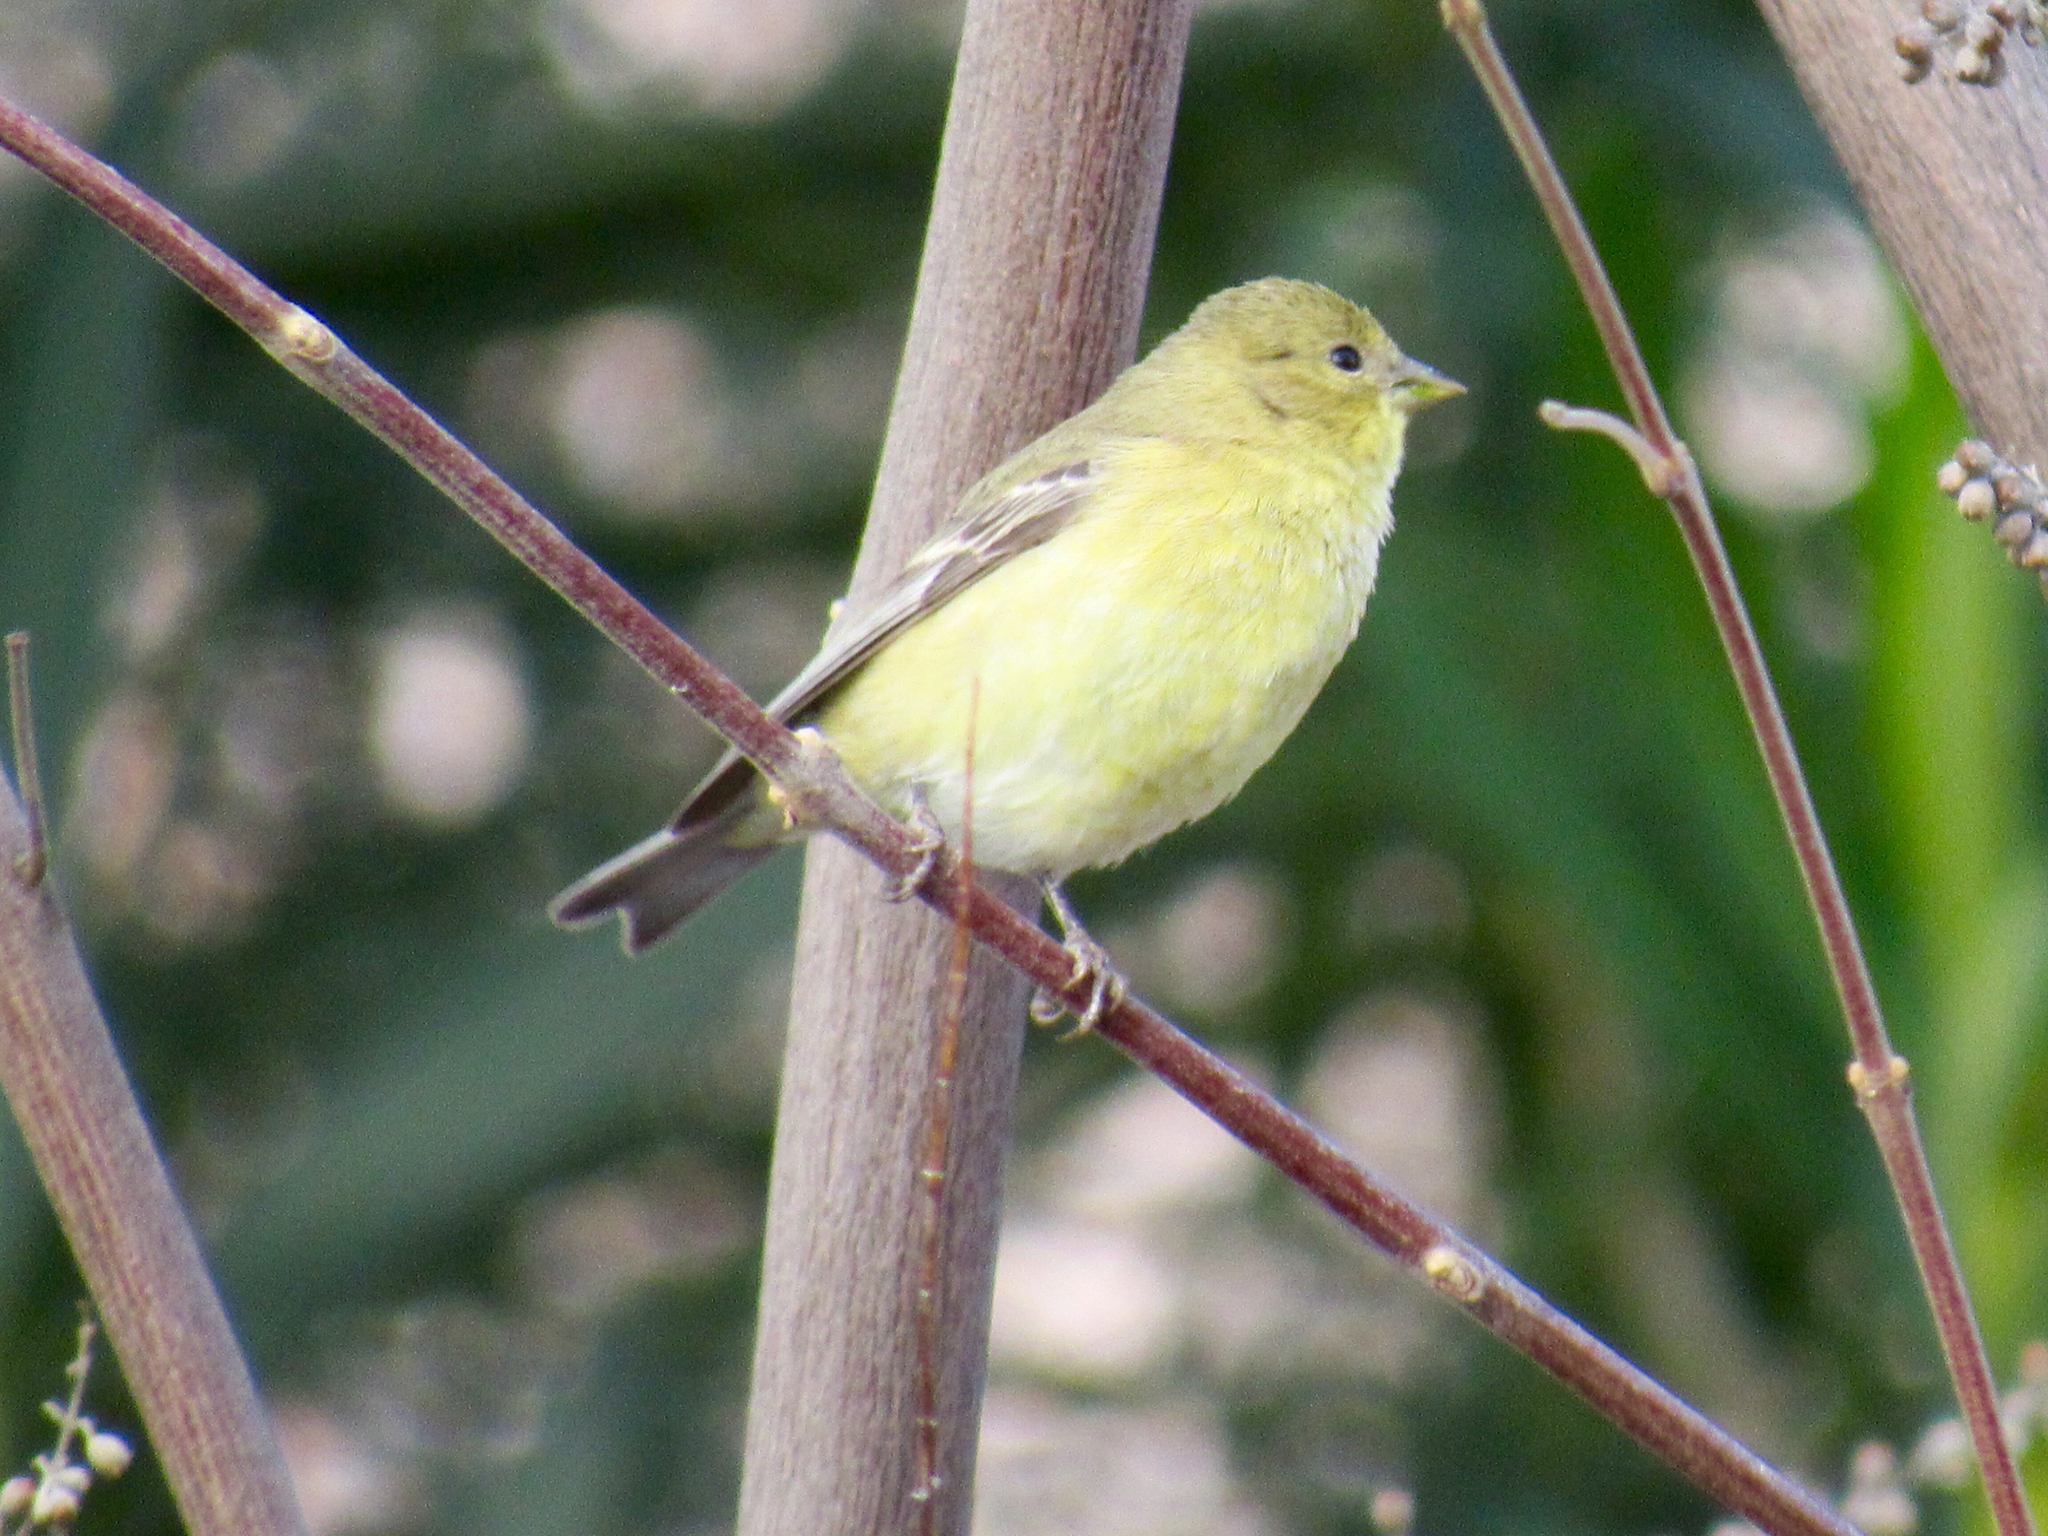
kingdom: Animalia
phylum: Chordata
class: Aves
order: Passeriformes
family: Fringillidae
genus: Spinus
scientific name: Spinus psaltria
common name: Lesser goldfinch
